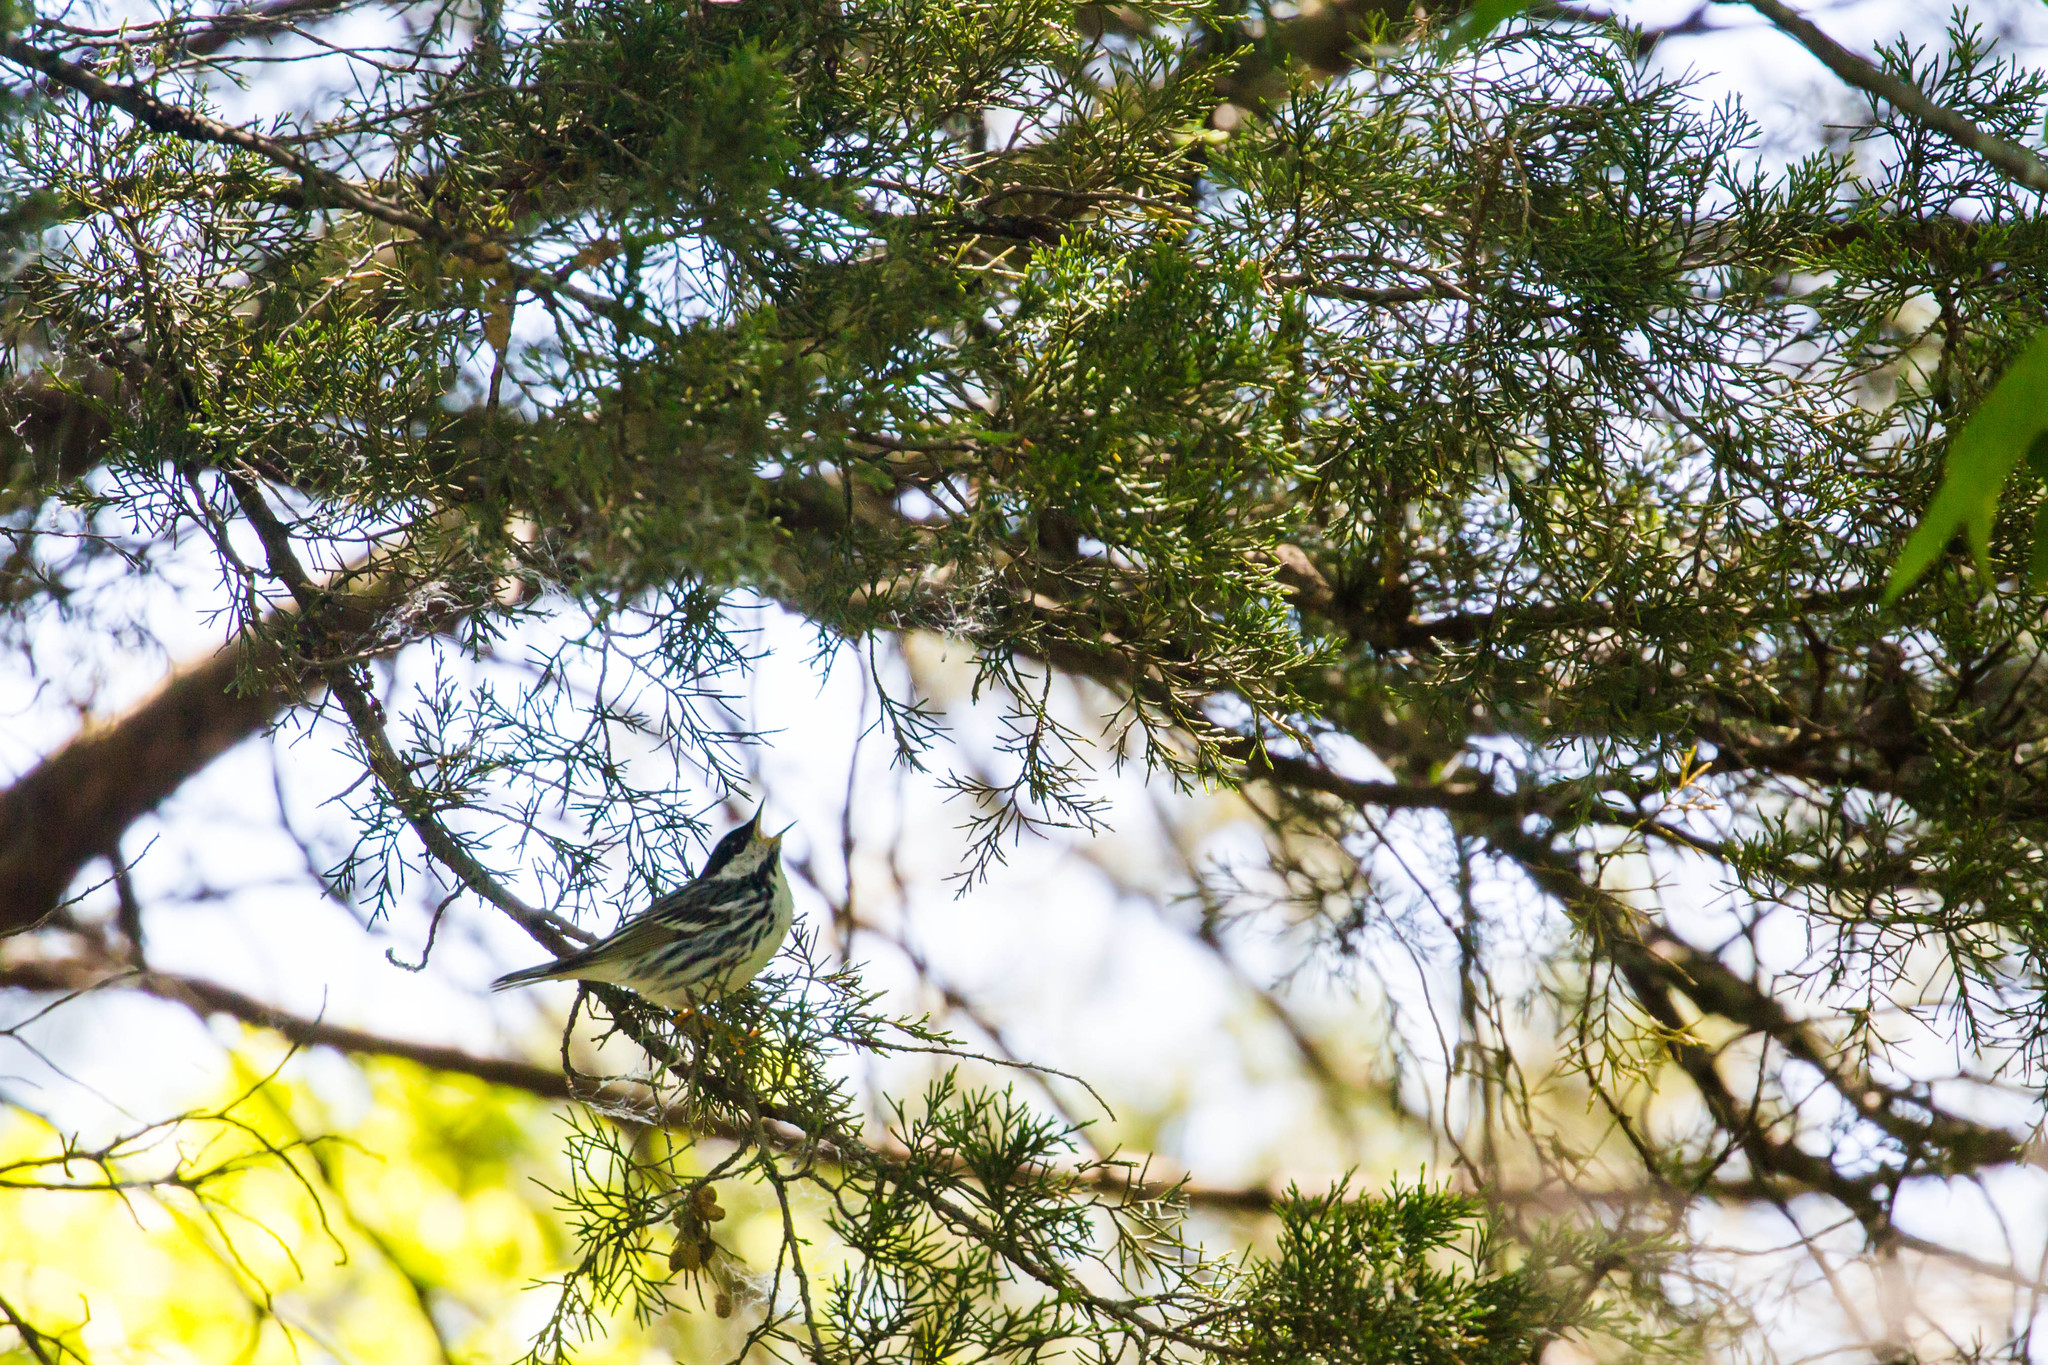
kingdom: Animalia
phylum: Chordata
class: Aves
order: Passeriformes
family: Parulidae
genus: Setophaga
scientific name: Setophaga striata
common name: Blackpoll warbler
